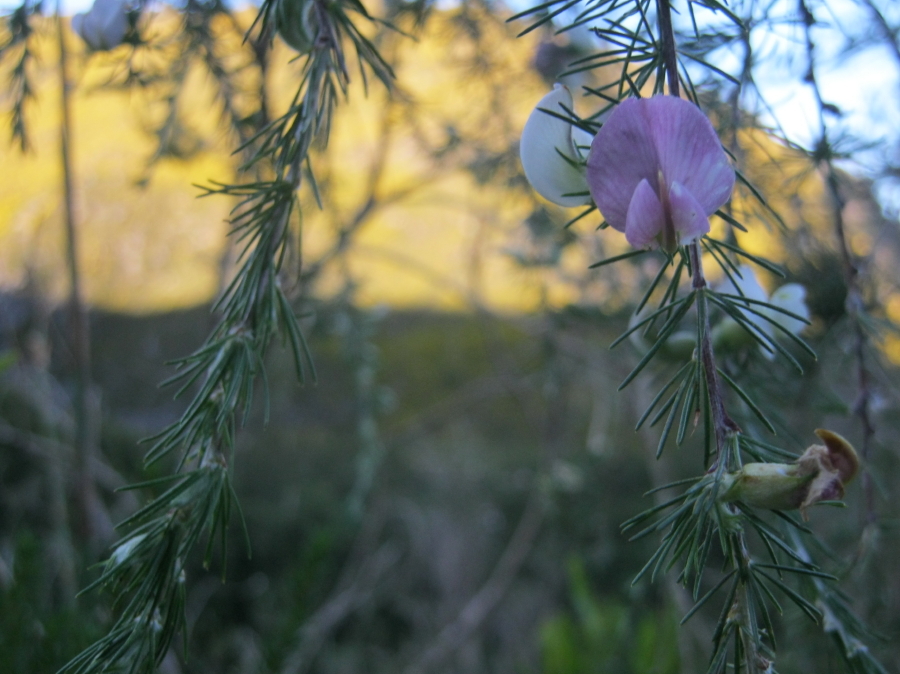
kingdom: Plantae
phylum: Tracheophyta
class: Magnoliopsida
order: Fabales
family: Fabaceae
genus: Aspalathus
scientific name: Aspalathus willdenowiana
